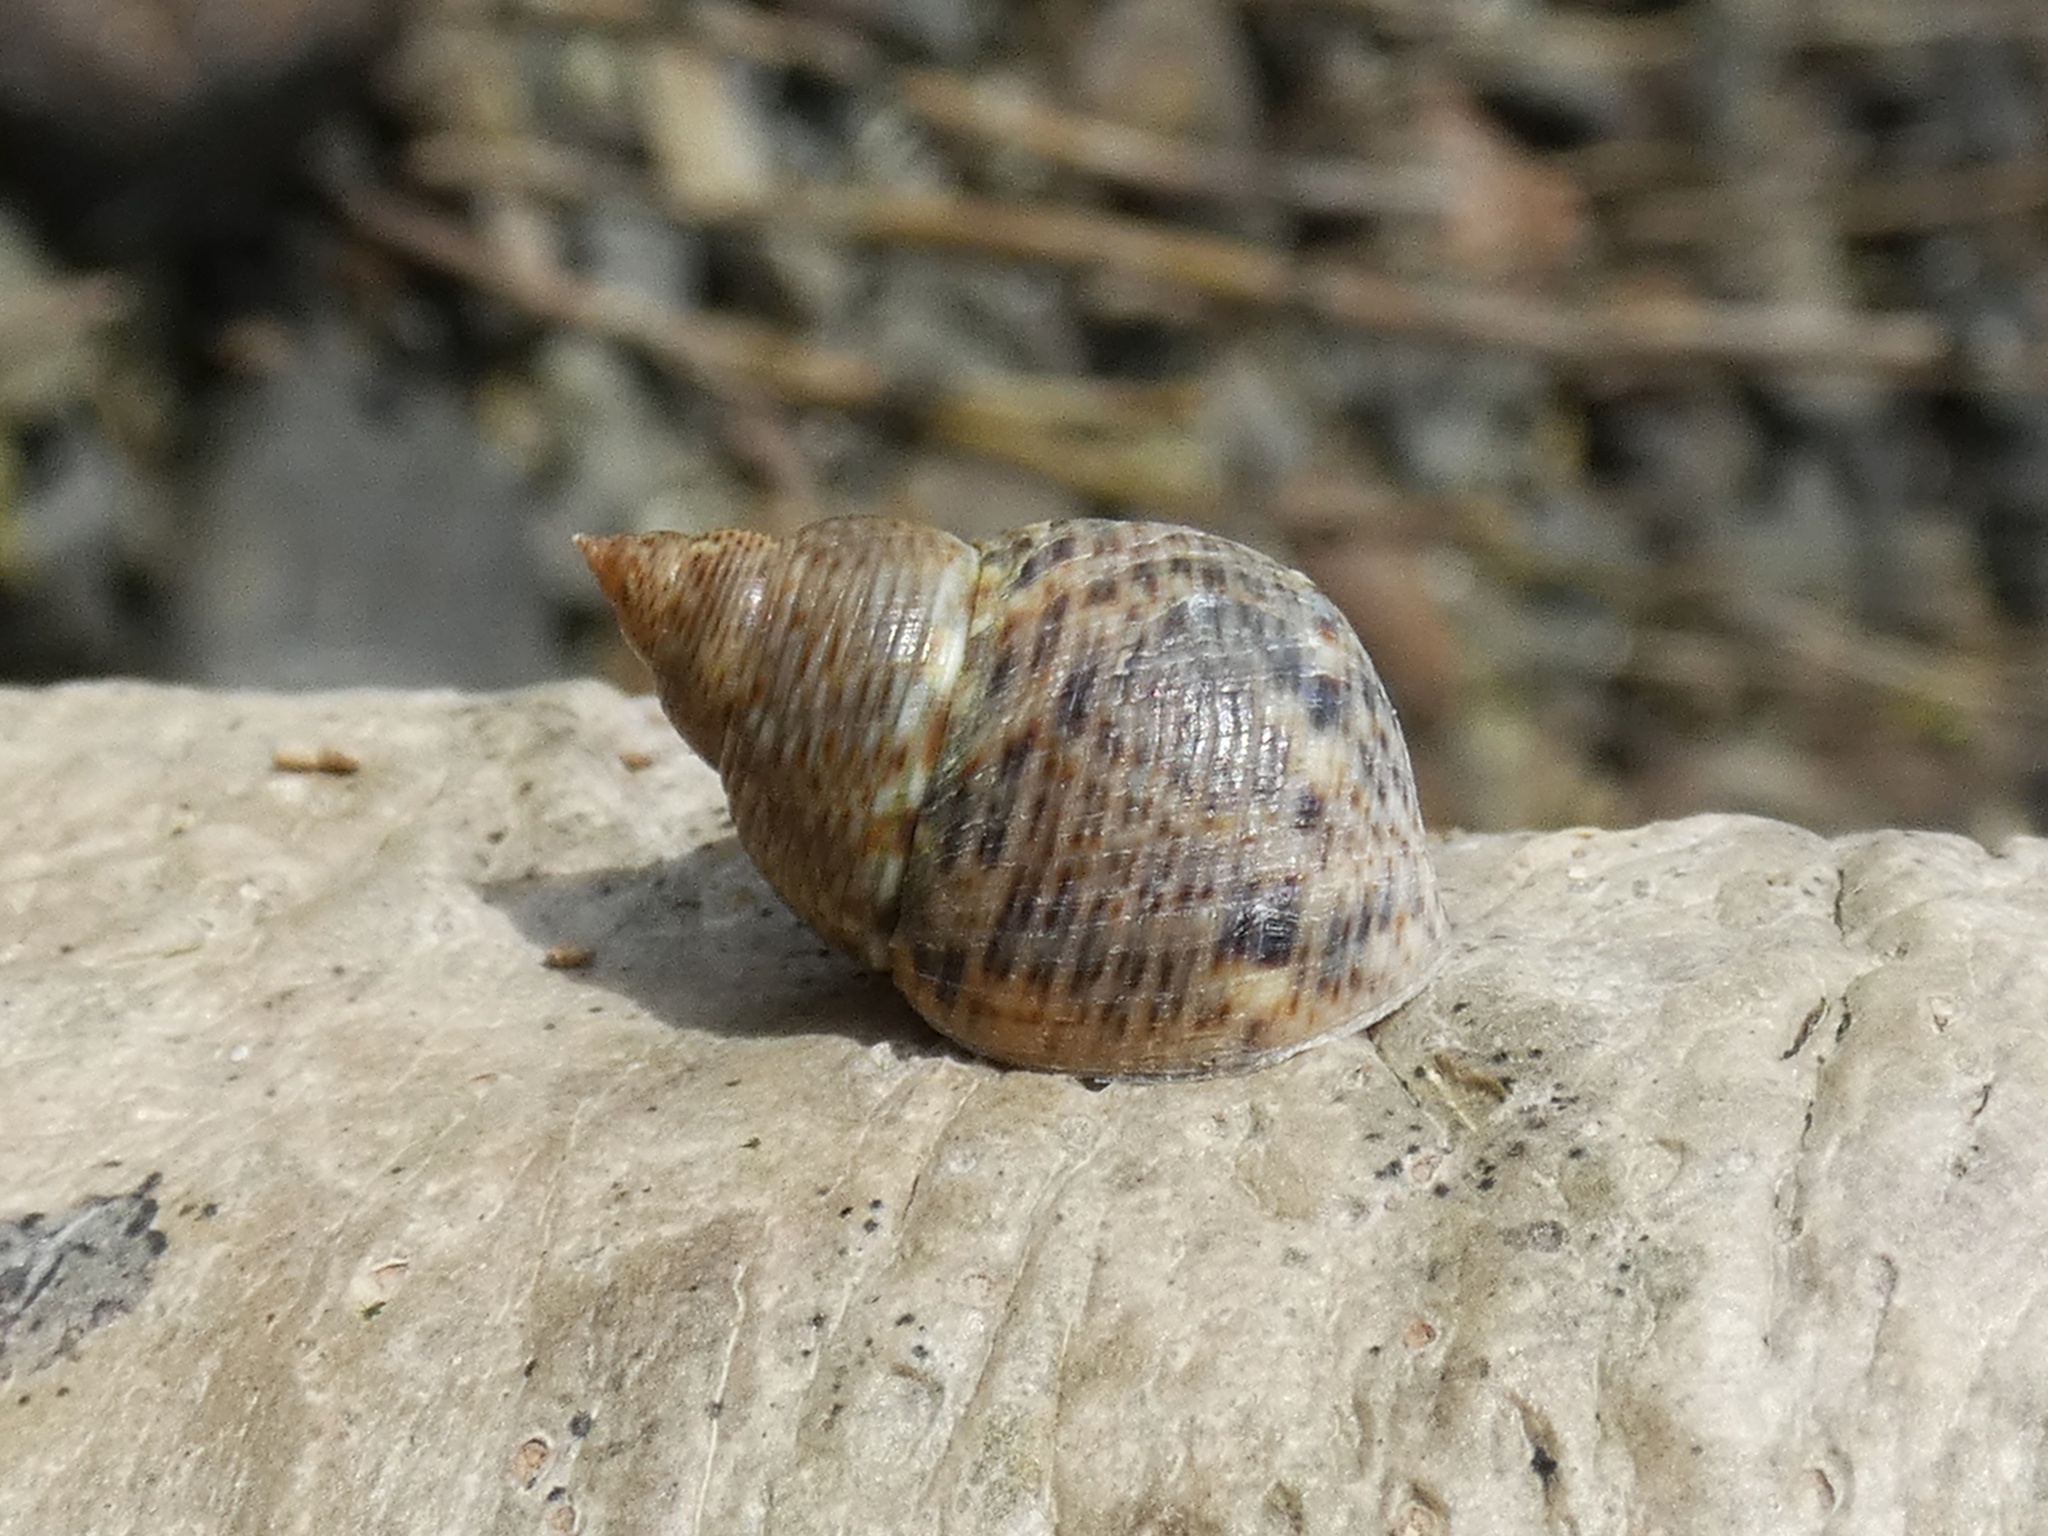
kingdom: Animalia
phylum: Mollusca
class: Gastropoda
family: Planaxidae
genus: Planaxis
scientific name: Planaxis sulcatus
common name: Furrowed planaxis
